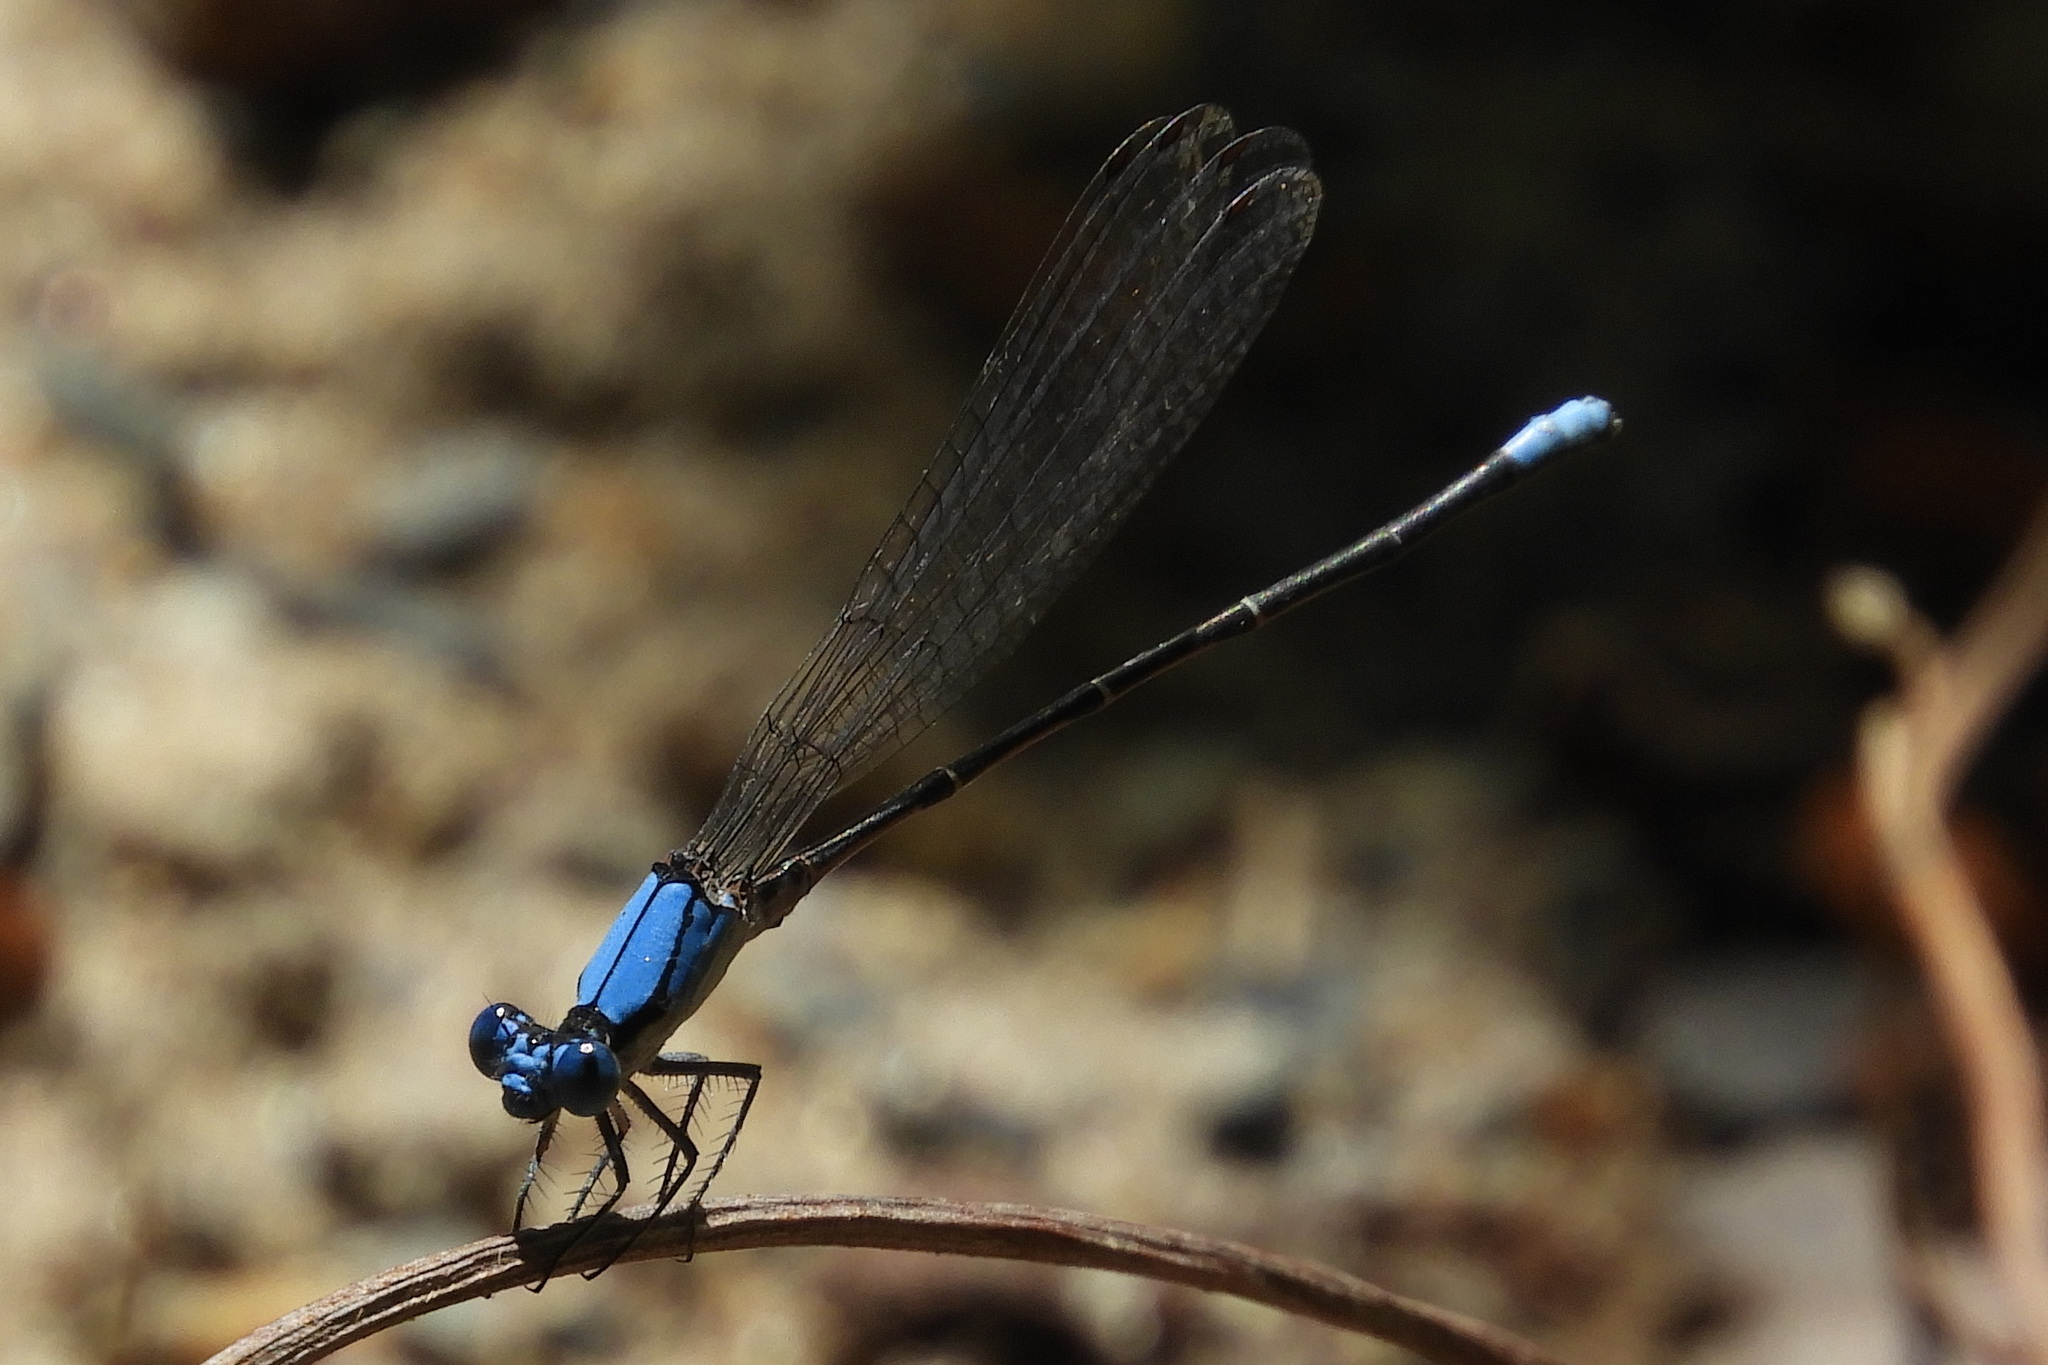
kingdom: Animalia
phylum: Arthropoda
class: Insecta
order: Odonata
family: Coenagrionidae
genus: Argia
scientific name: Argia apicalis
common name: Blue-fronted dancer
